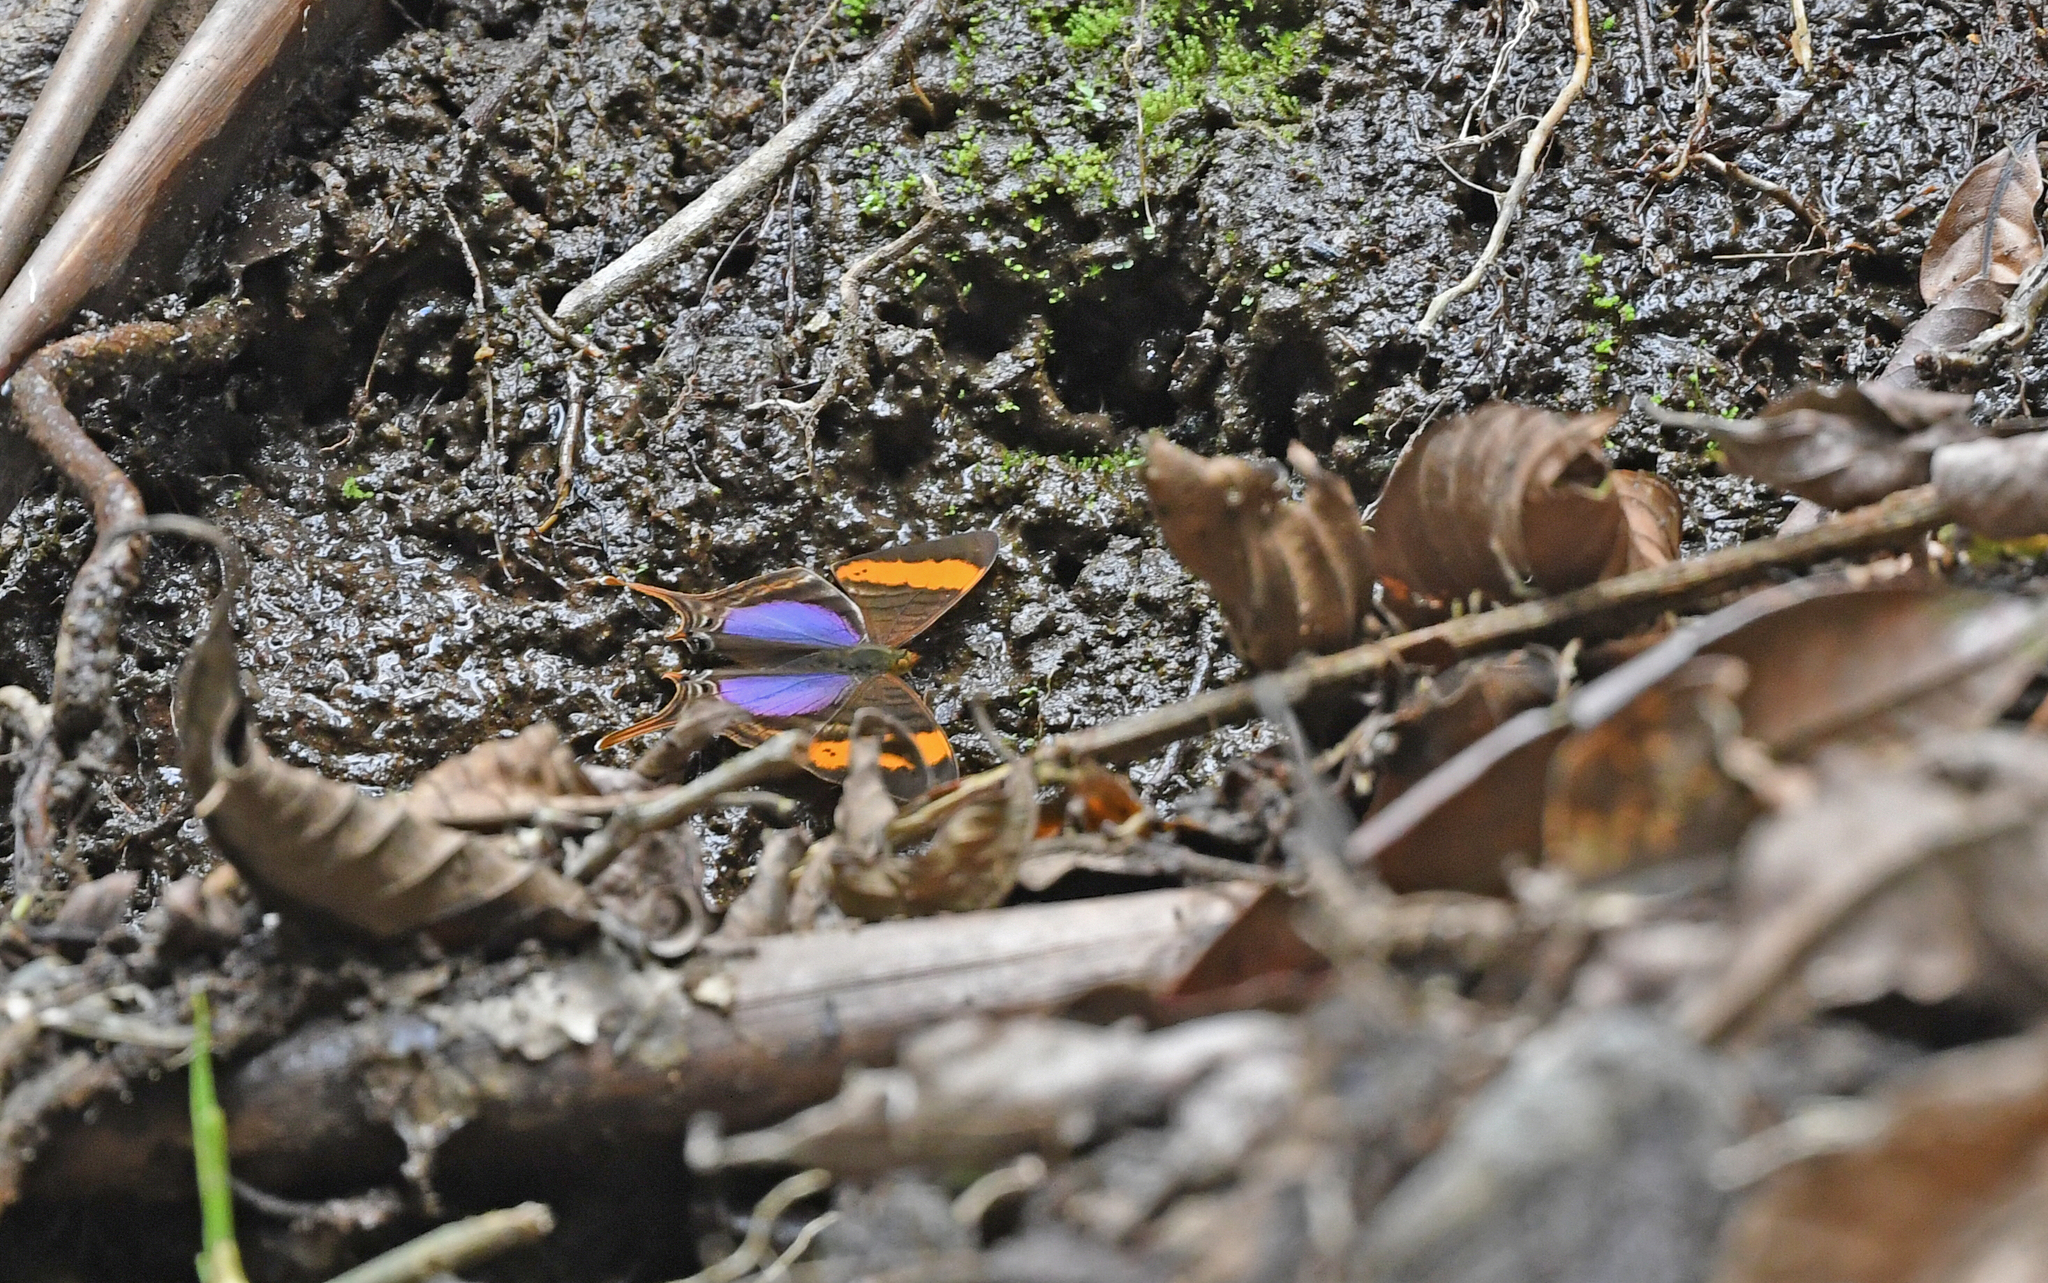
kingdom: Animalia
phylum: Arthropoda
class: Insecta
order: Lepidoptera
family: Nymphalidae
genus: Marpesia
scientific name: Marpesia corinna
